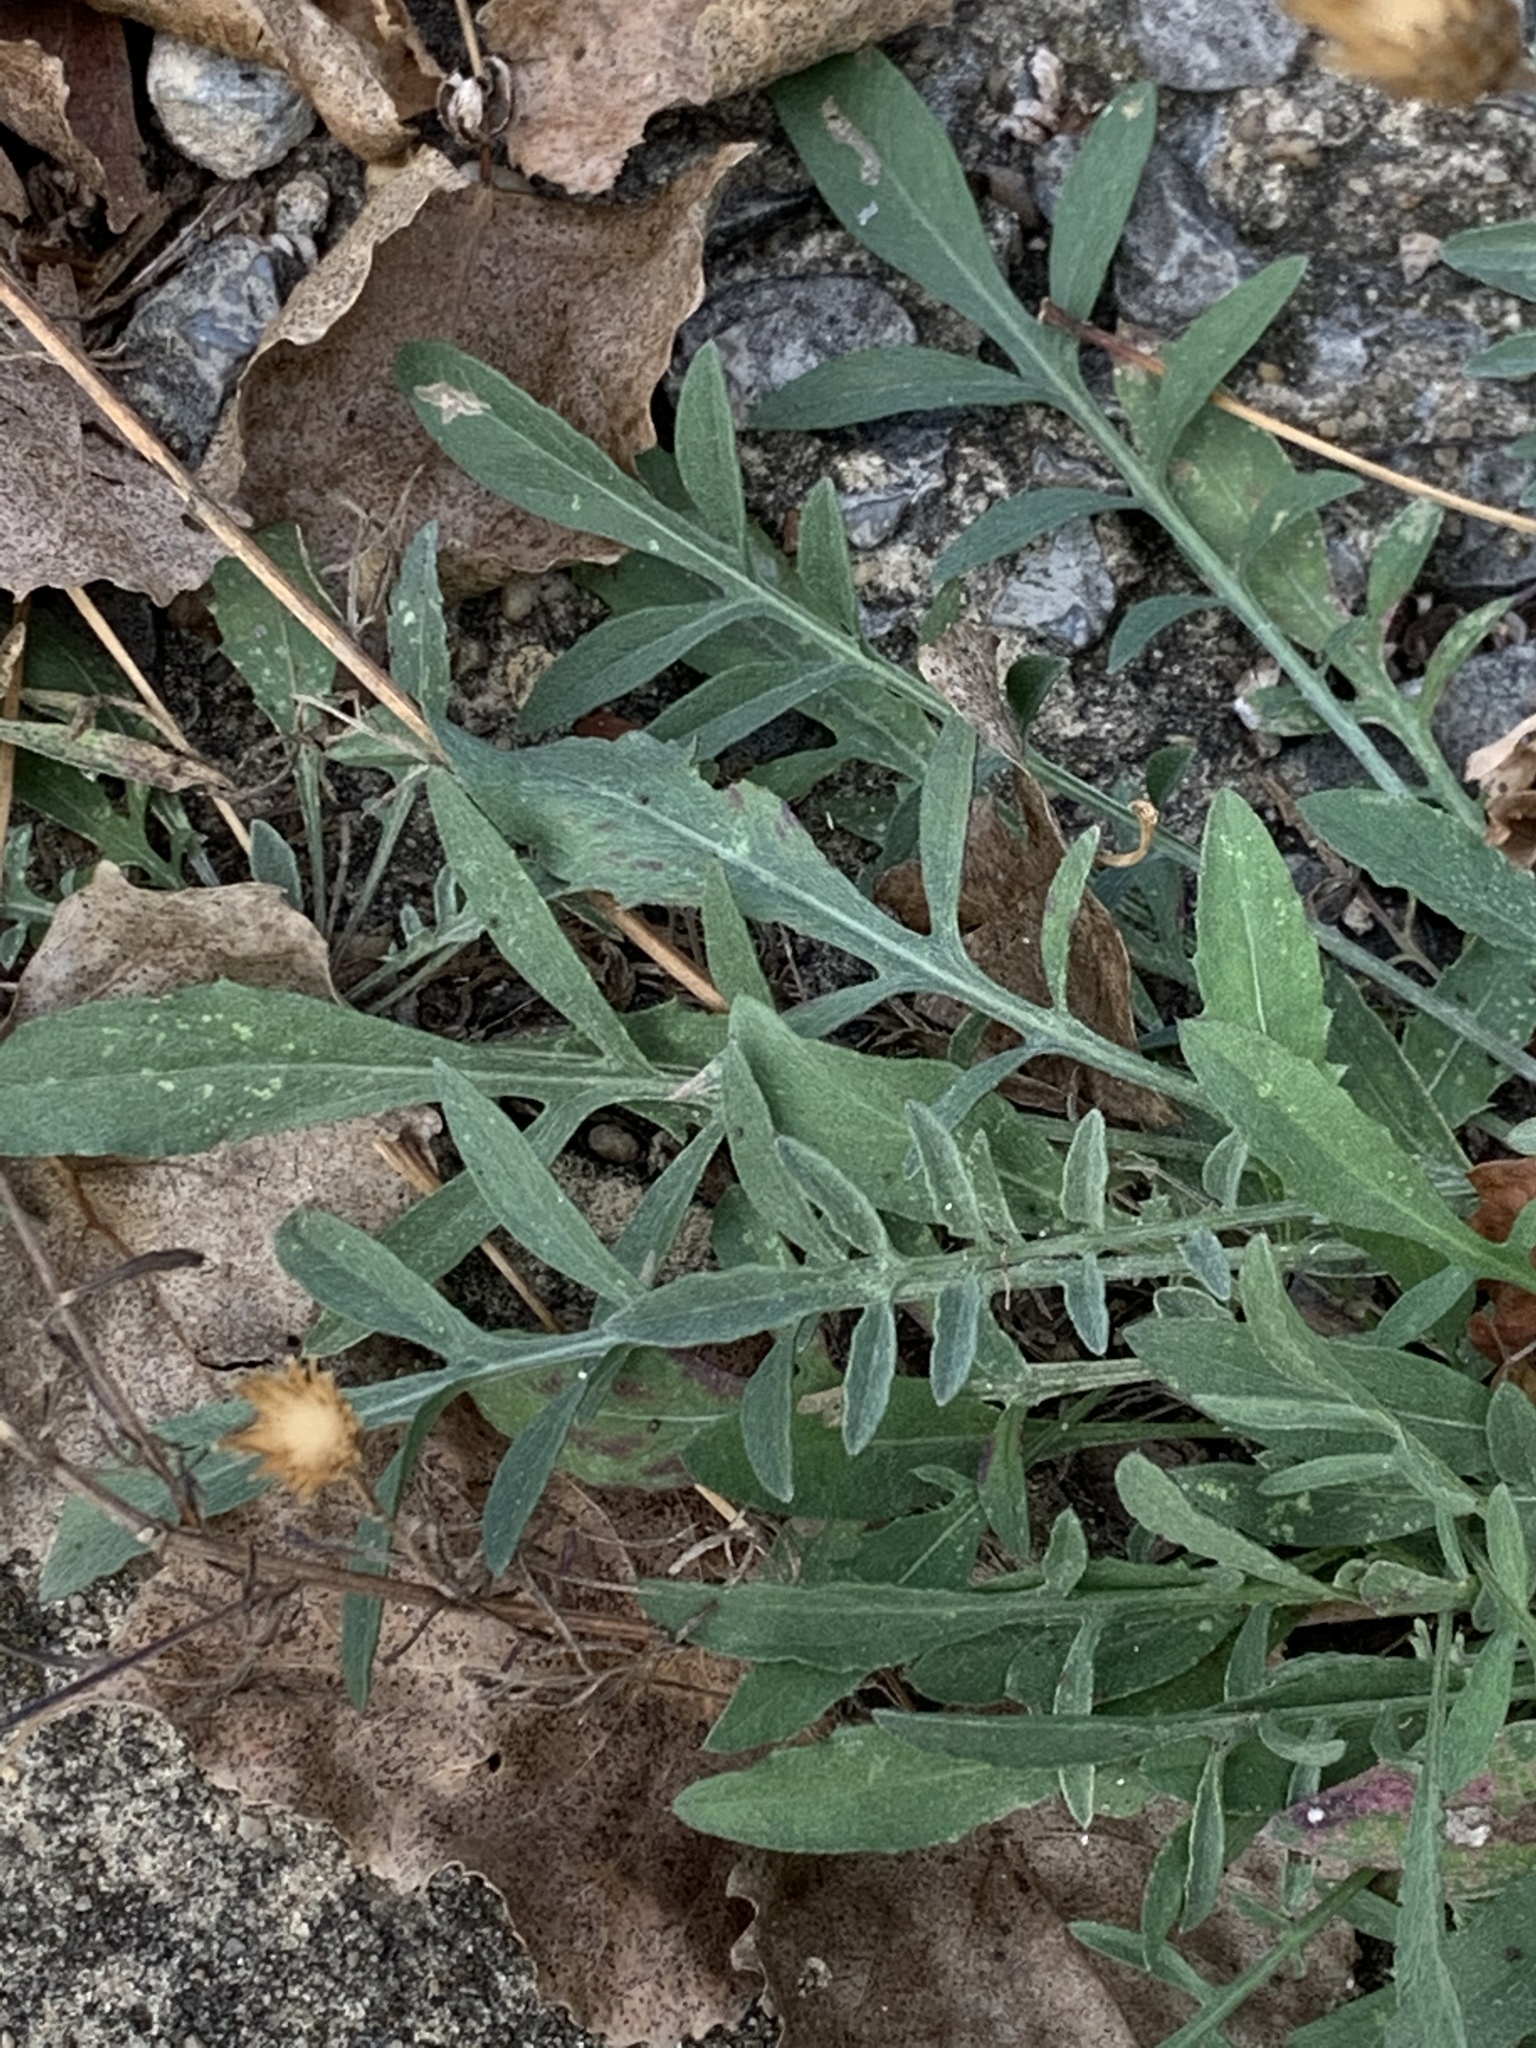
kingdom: Plantae
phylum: Tracheophyta
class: Magnoliopsida
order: Asterales
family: Asteraceae
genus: Centaurea
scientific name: Centaurea stoebe
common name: Spotted knapweed
